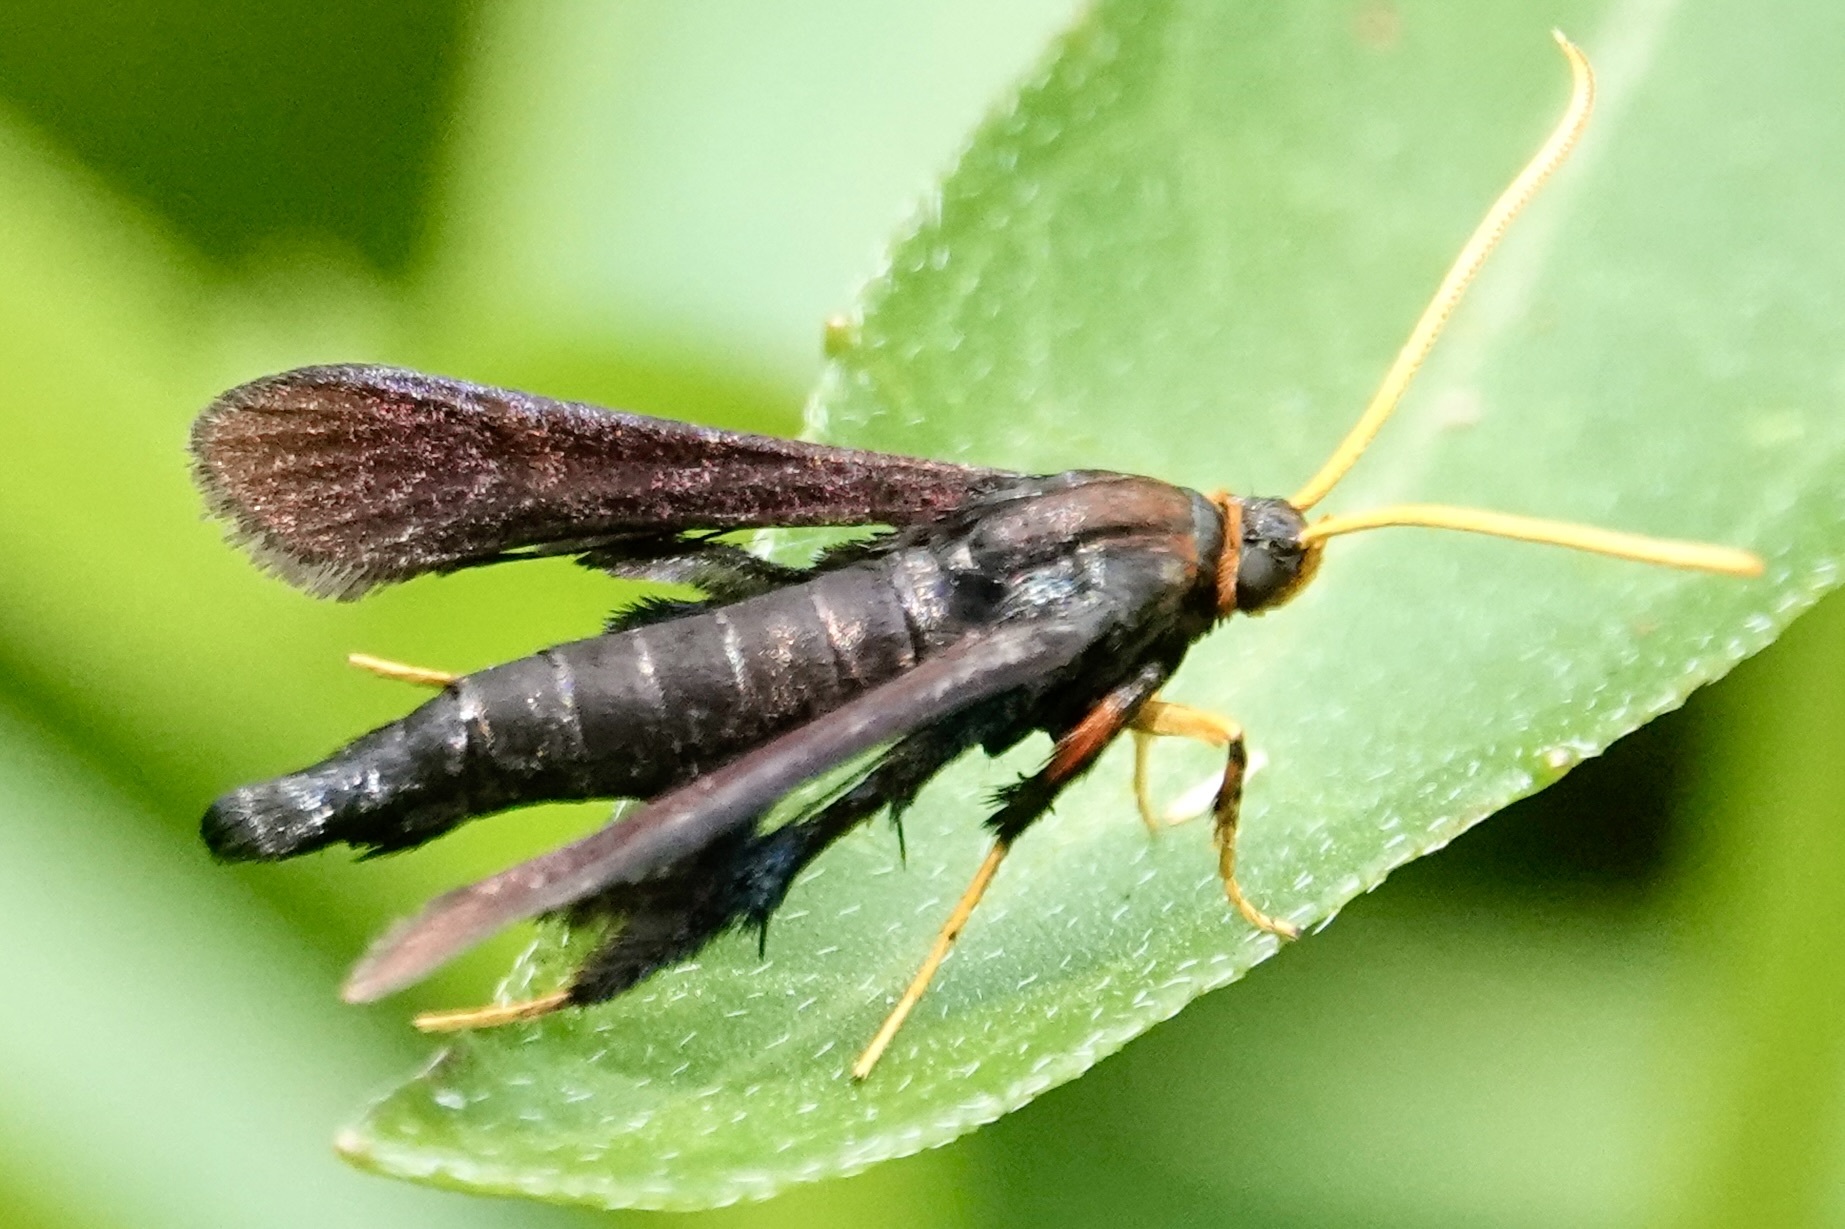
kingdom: Animalia
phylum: Arthropoda
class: Insecta
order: Lepidoptera
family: Sesiidae
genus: Alcathoe
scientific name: Alcathoe caudata
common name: Clematis clearwing moth
